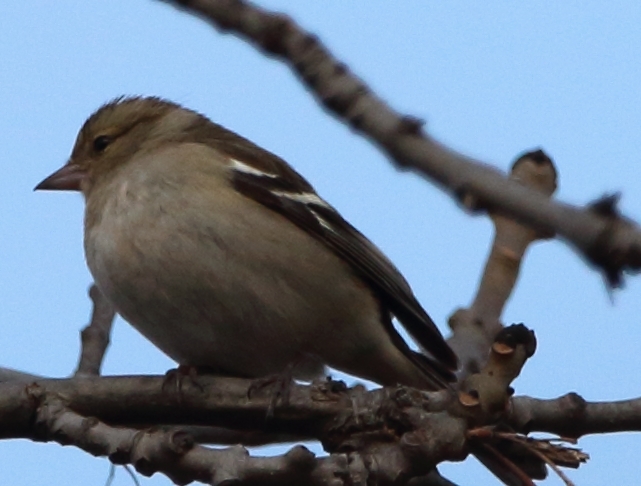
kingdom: Animalia
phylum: Chordata
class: Aves
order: Passeriformes
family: Fringillidae
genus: Fringilla
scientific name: Fringilla coelebs
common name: Common chaffinch
